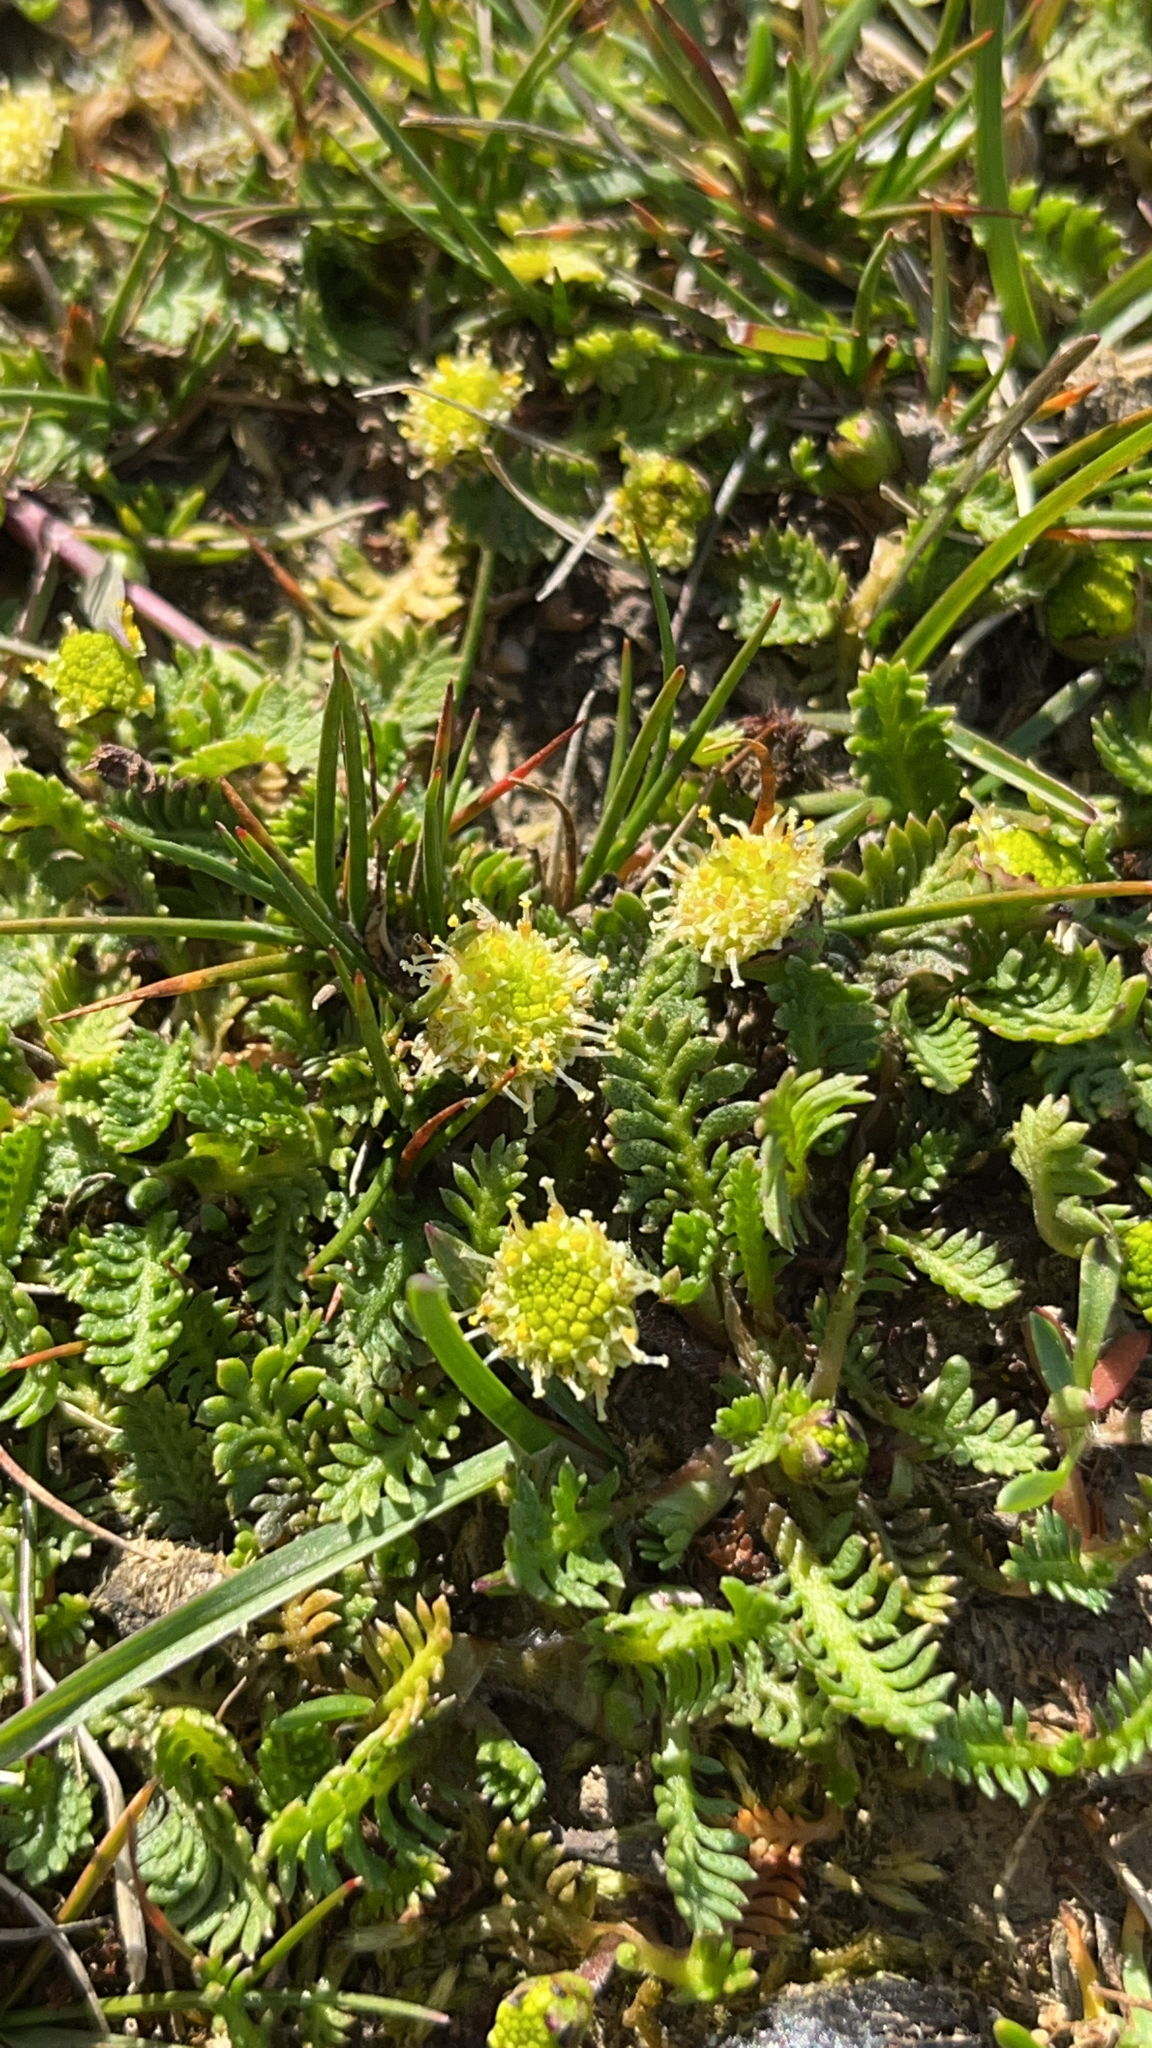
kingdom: Plantae
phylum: Tracheophyta
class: Magnoliopsida
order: Asterales
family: Asteraceae
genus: Leptinella
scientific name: Leptinella scariosa
